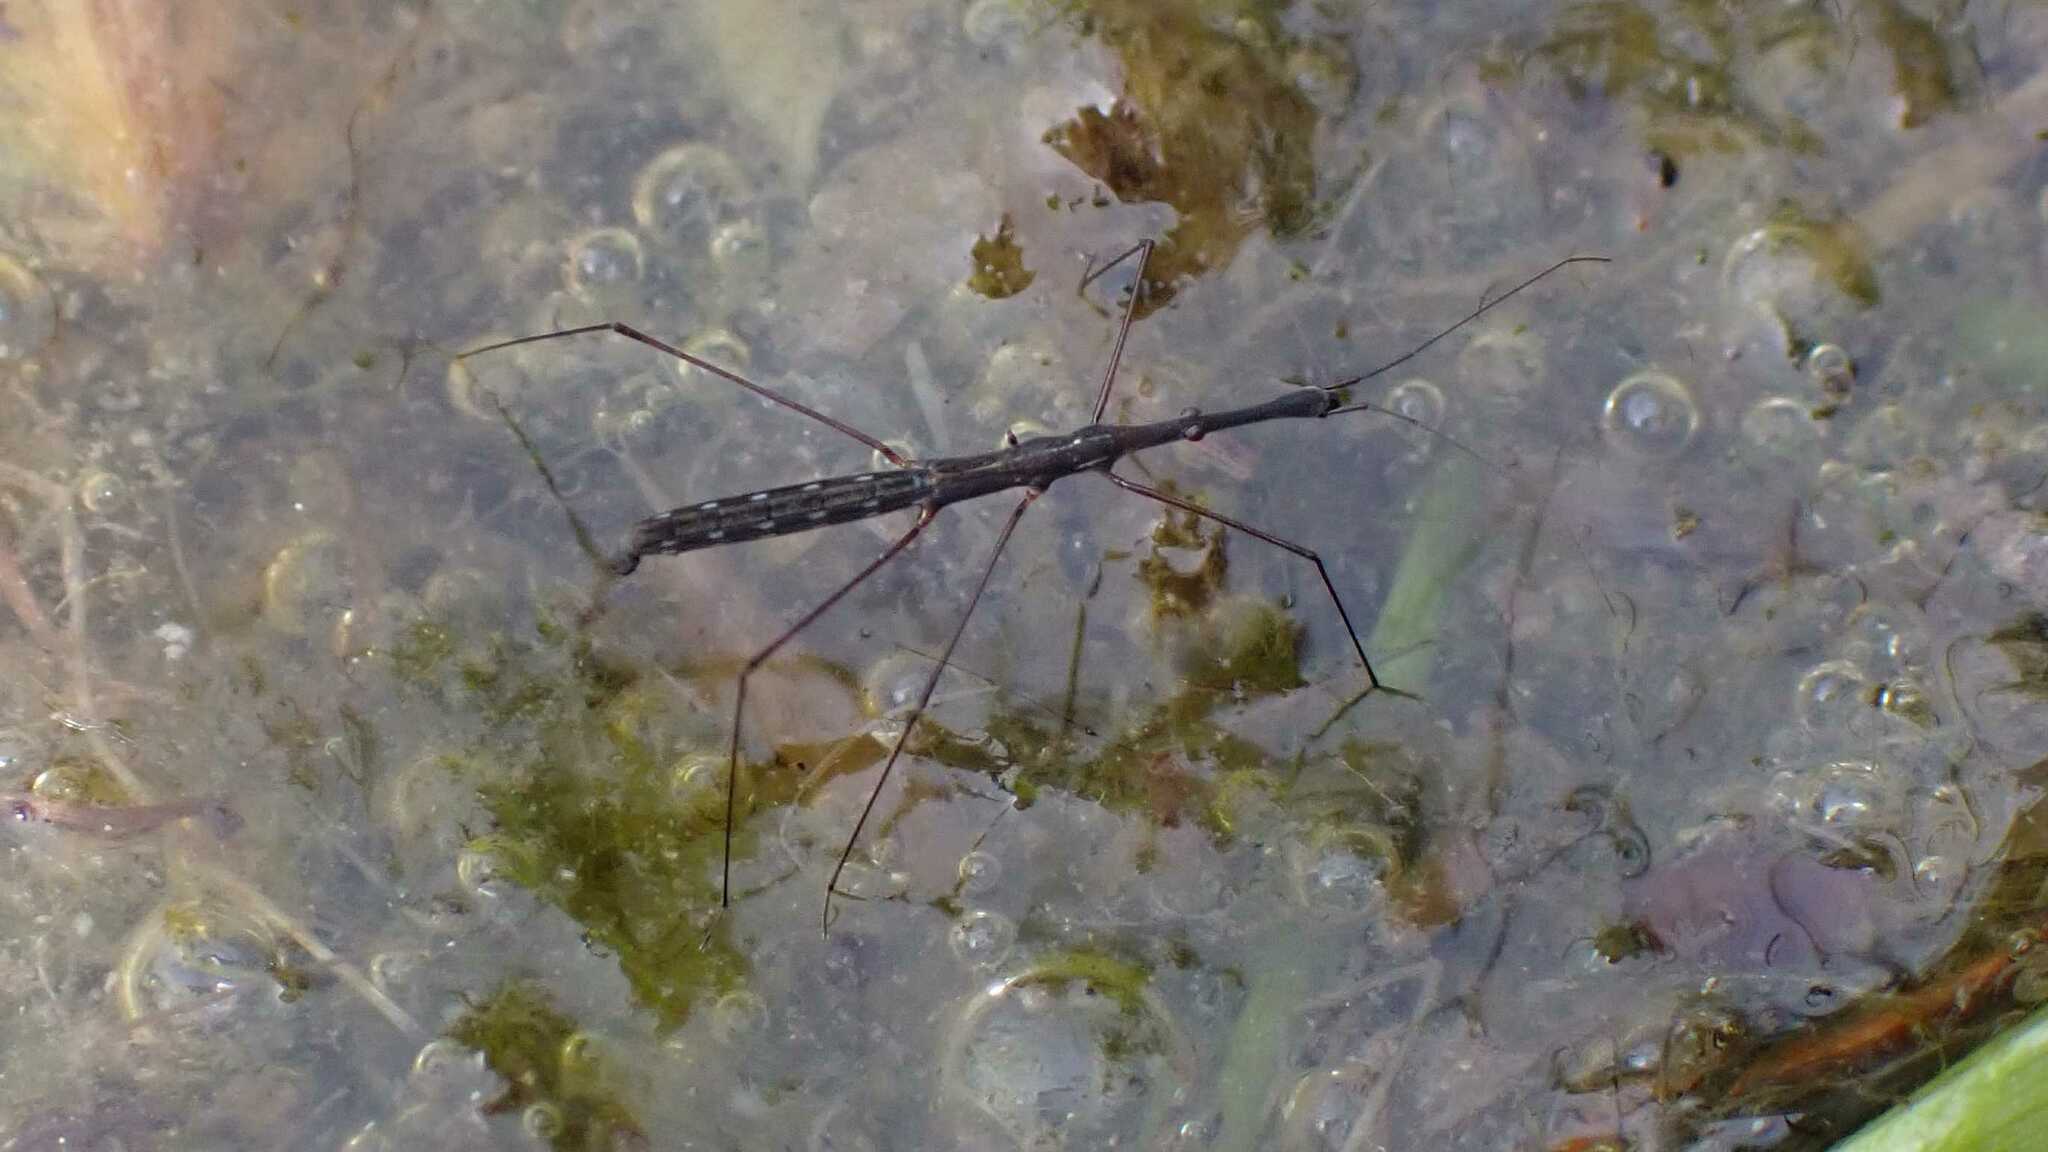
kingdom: Animalia
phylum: Arthropoda
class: Insecta
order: Hemiptera
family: Hydrometridae
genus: Hydrometra
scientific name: Hydrometra stagnorum
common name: Water measurer
